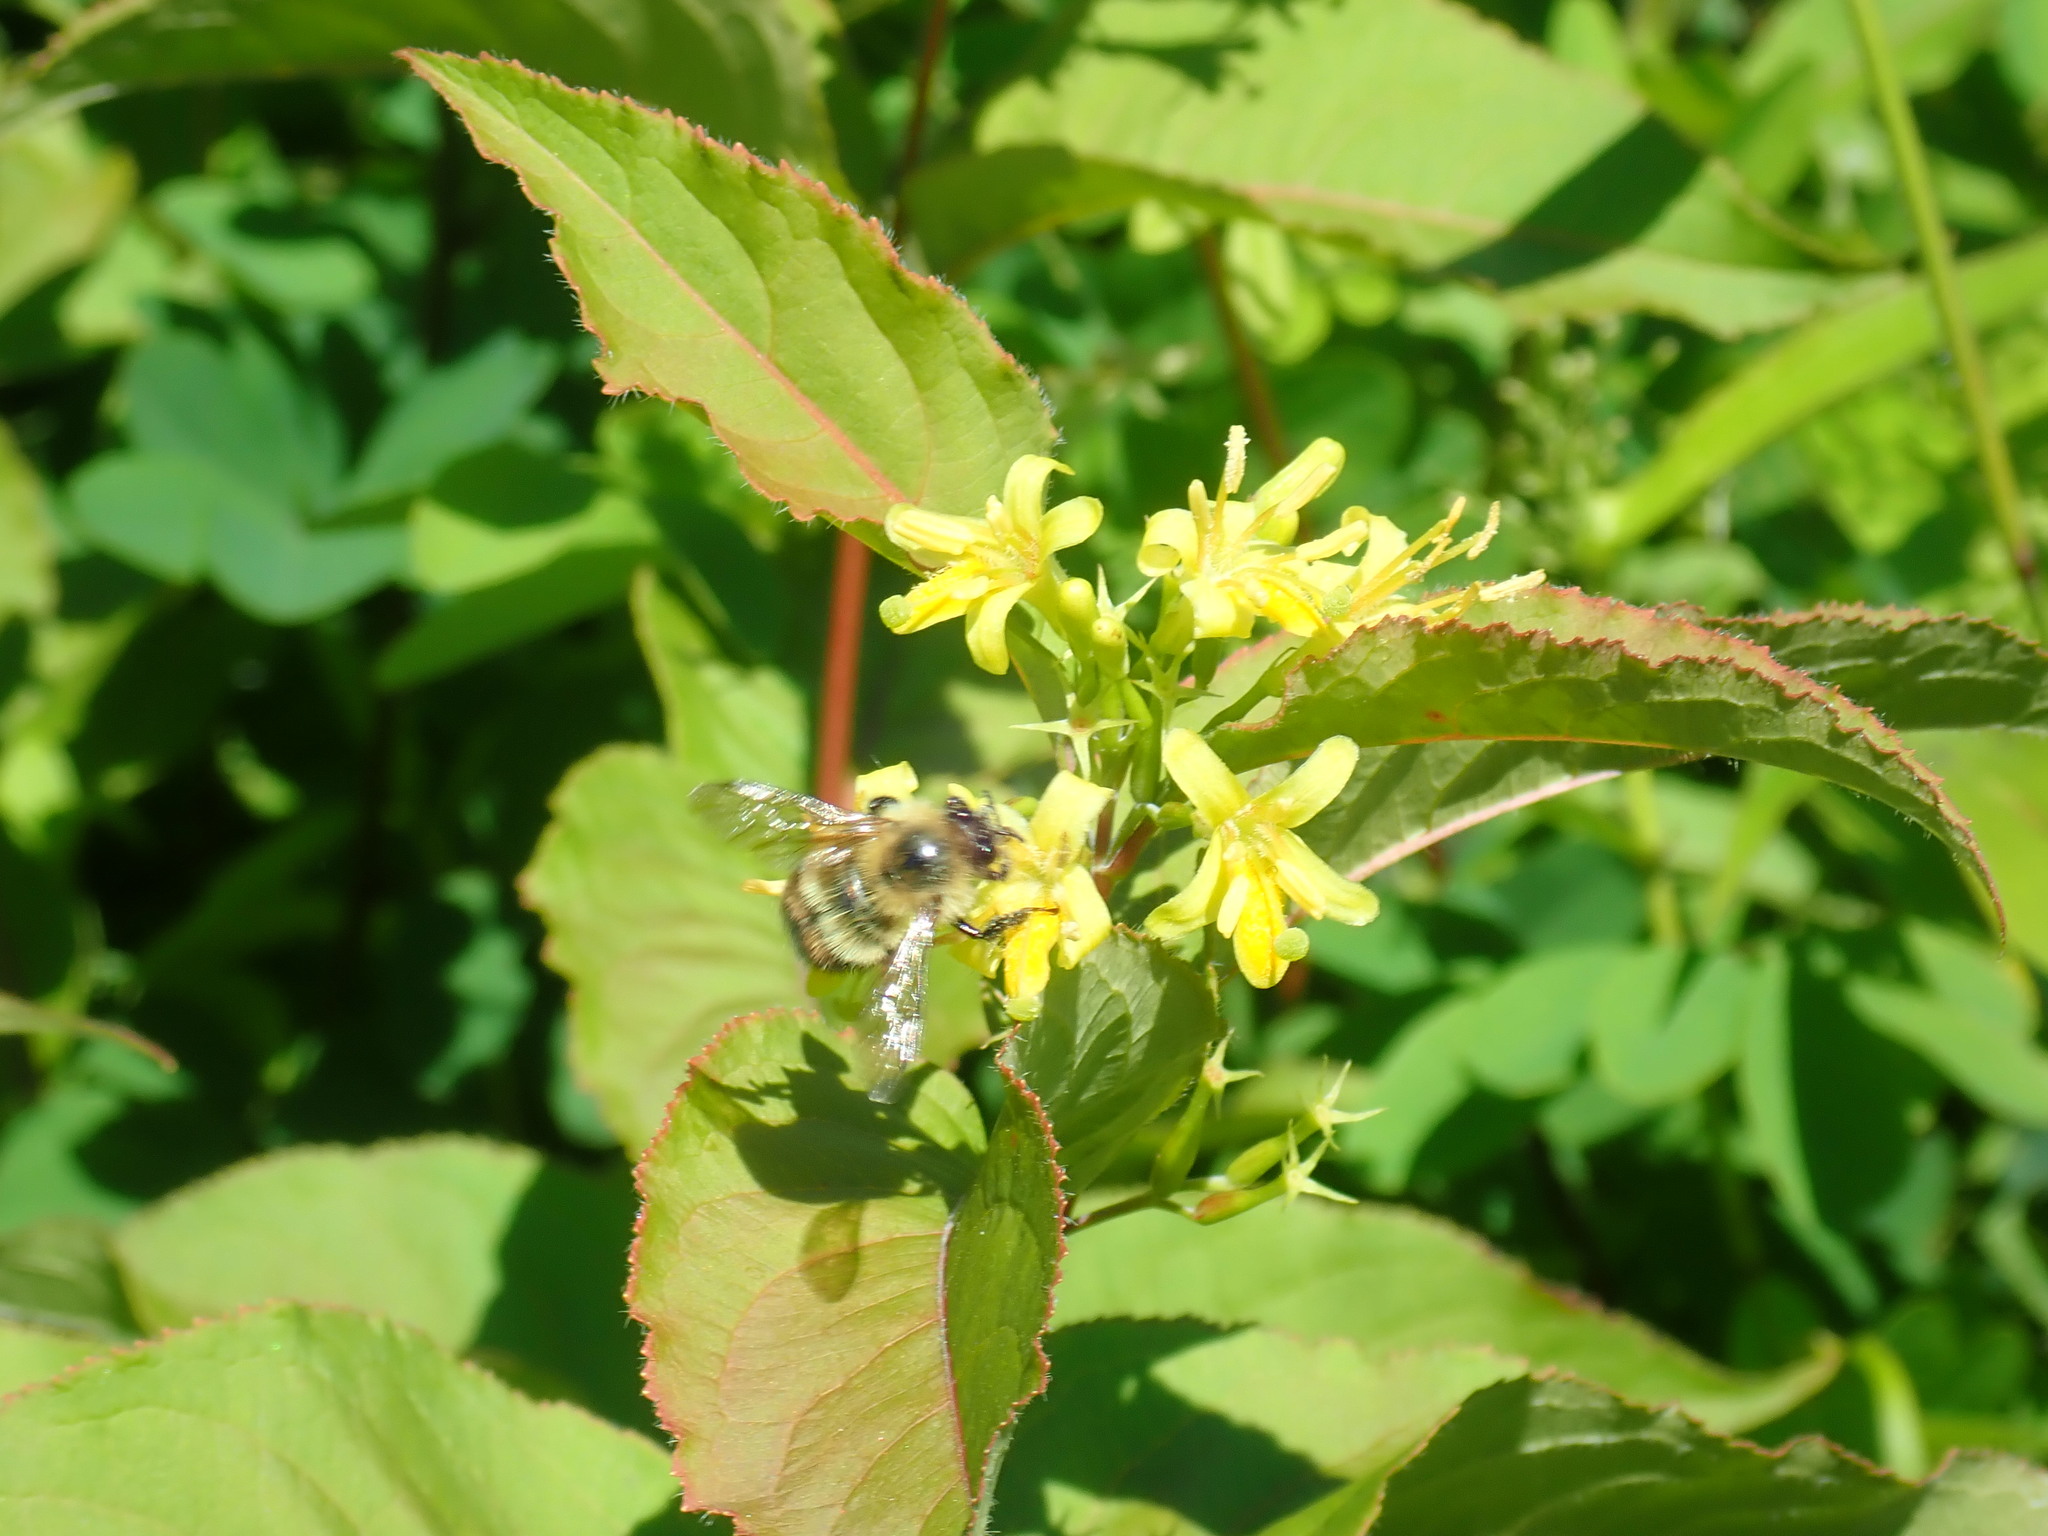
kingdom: Plantae
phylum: Tracheophyta
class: Magnoliopsida
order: Dipsacales
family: Caprifoliaceae
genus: Diervilla
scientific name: Diervilla lonicera
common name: Bush-honeysuckle
